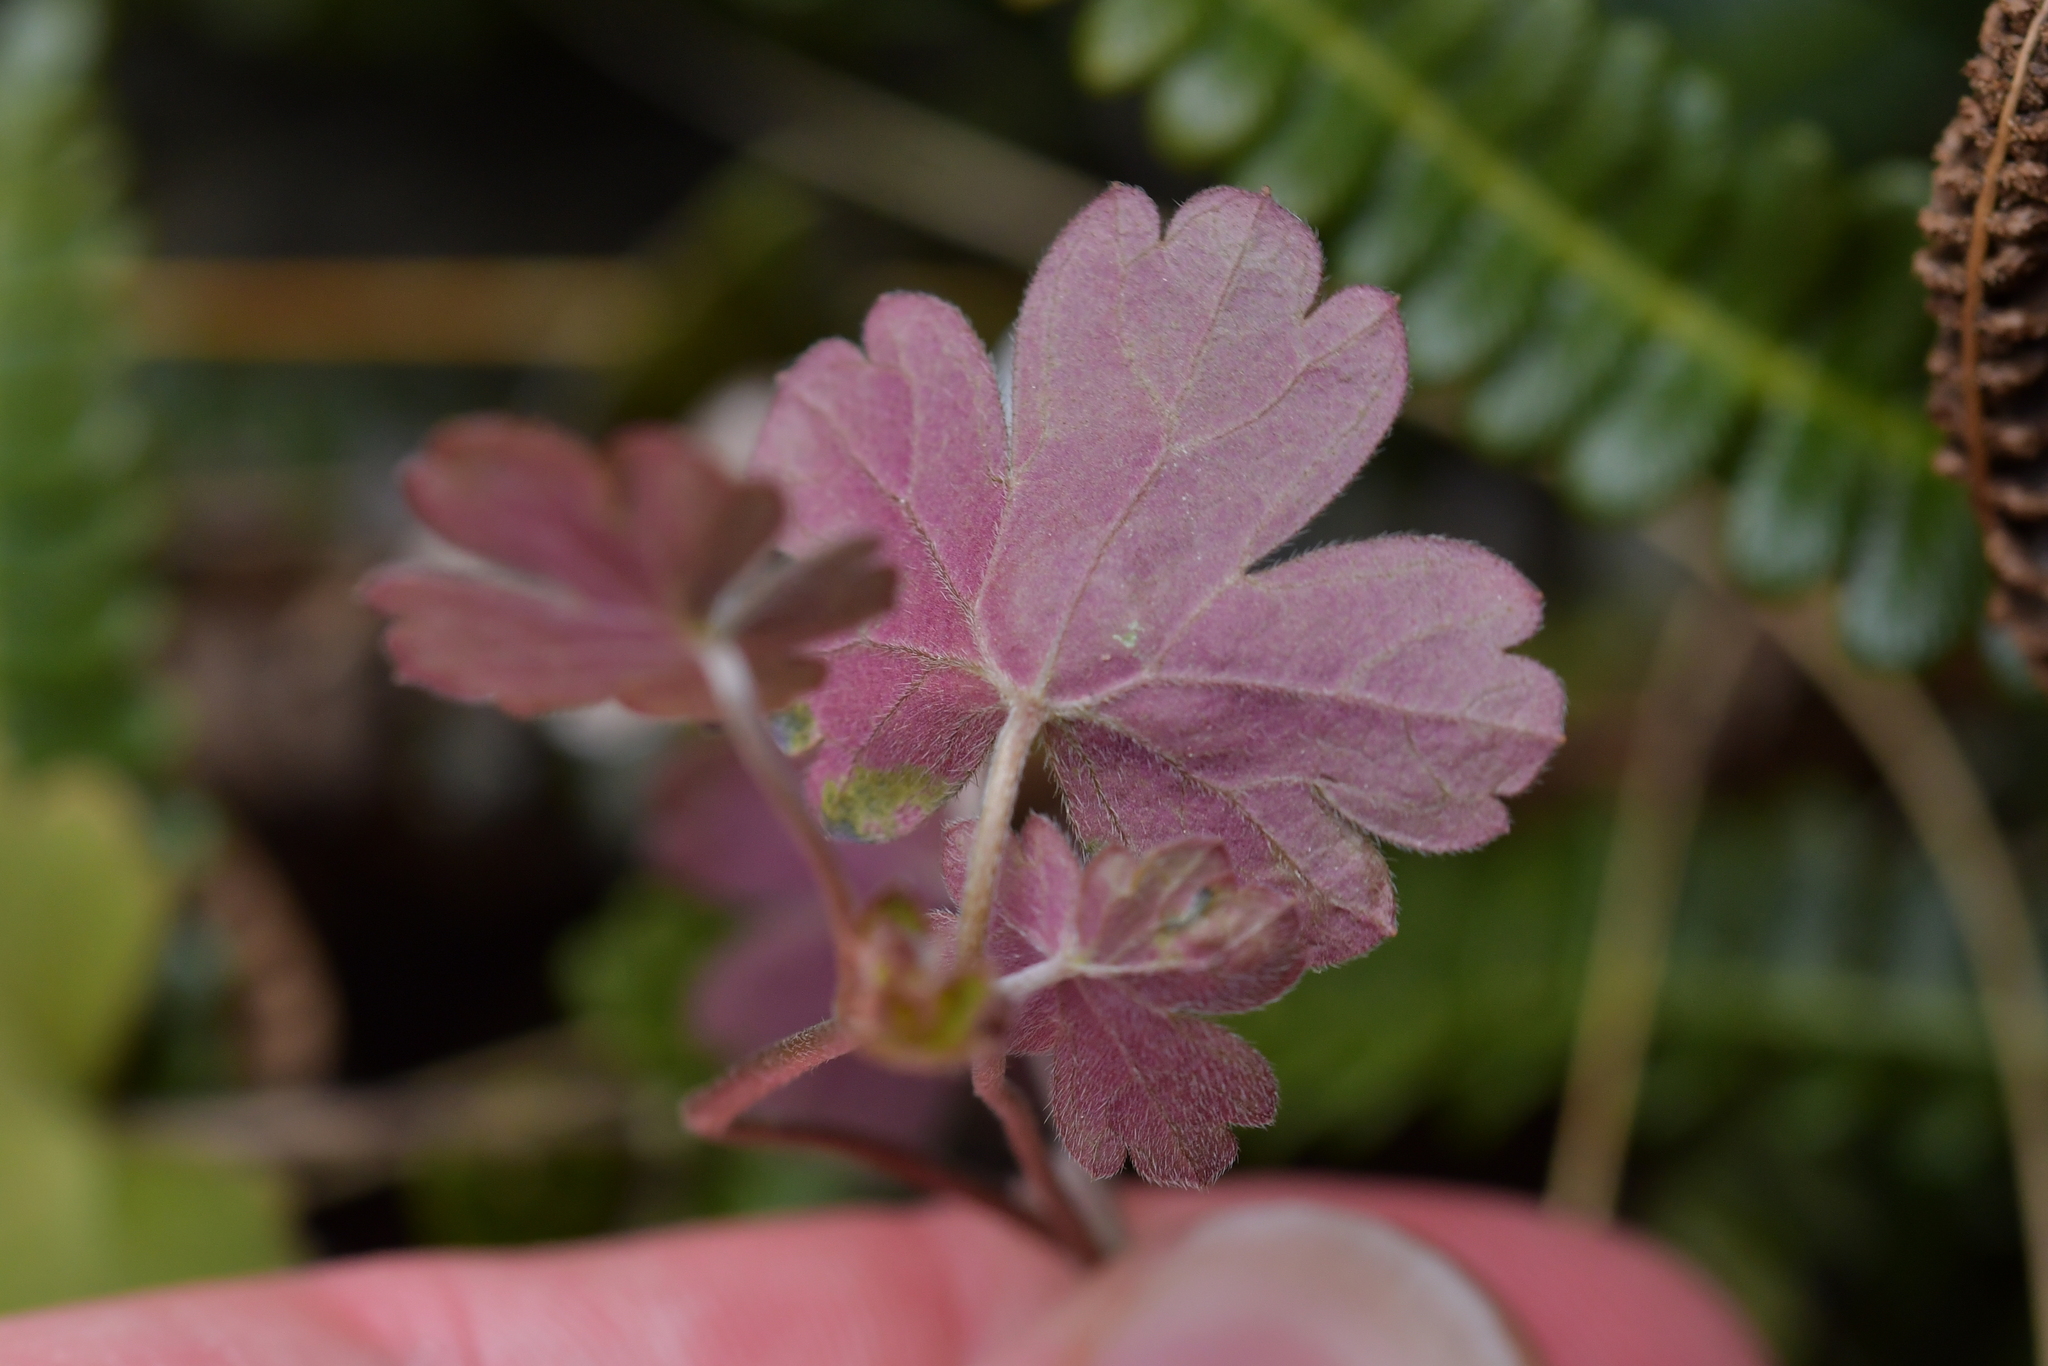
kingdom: Plantae
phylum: Tracheophyta
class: Magnoliopsida
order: Geraniales
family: Geraniaceae
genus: Geranium
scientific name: Geranium
